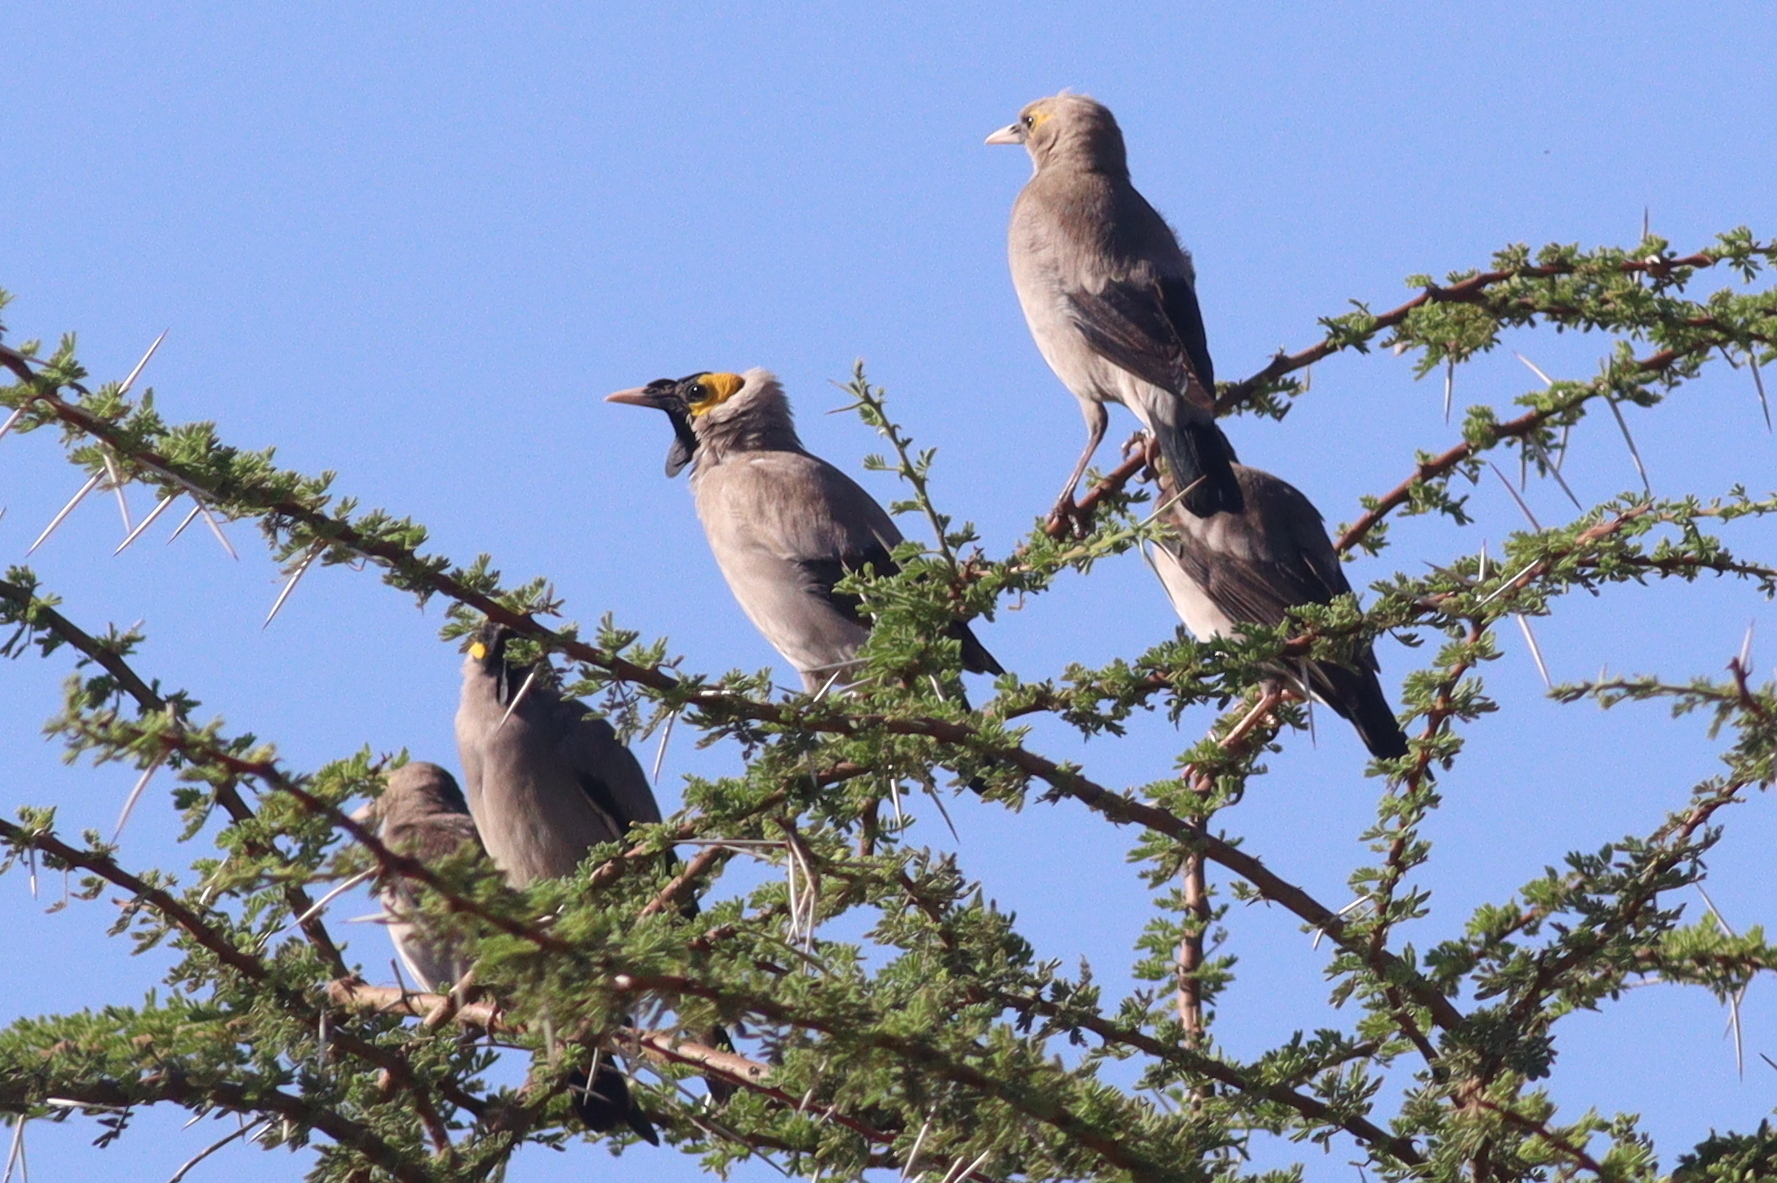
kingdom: Animalia
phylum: Chordata
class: Aves
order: Passeriformes
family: Sturnidae
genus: Creatophora
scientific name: Creatophora cinerea
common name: Wattled starling
